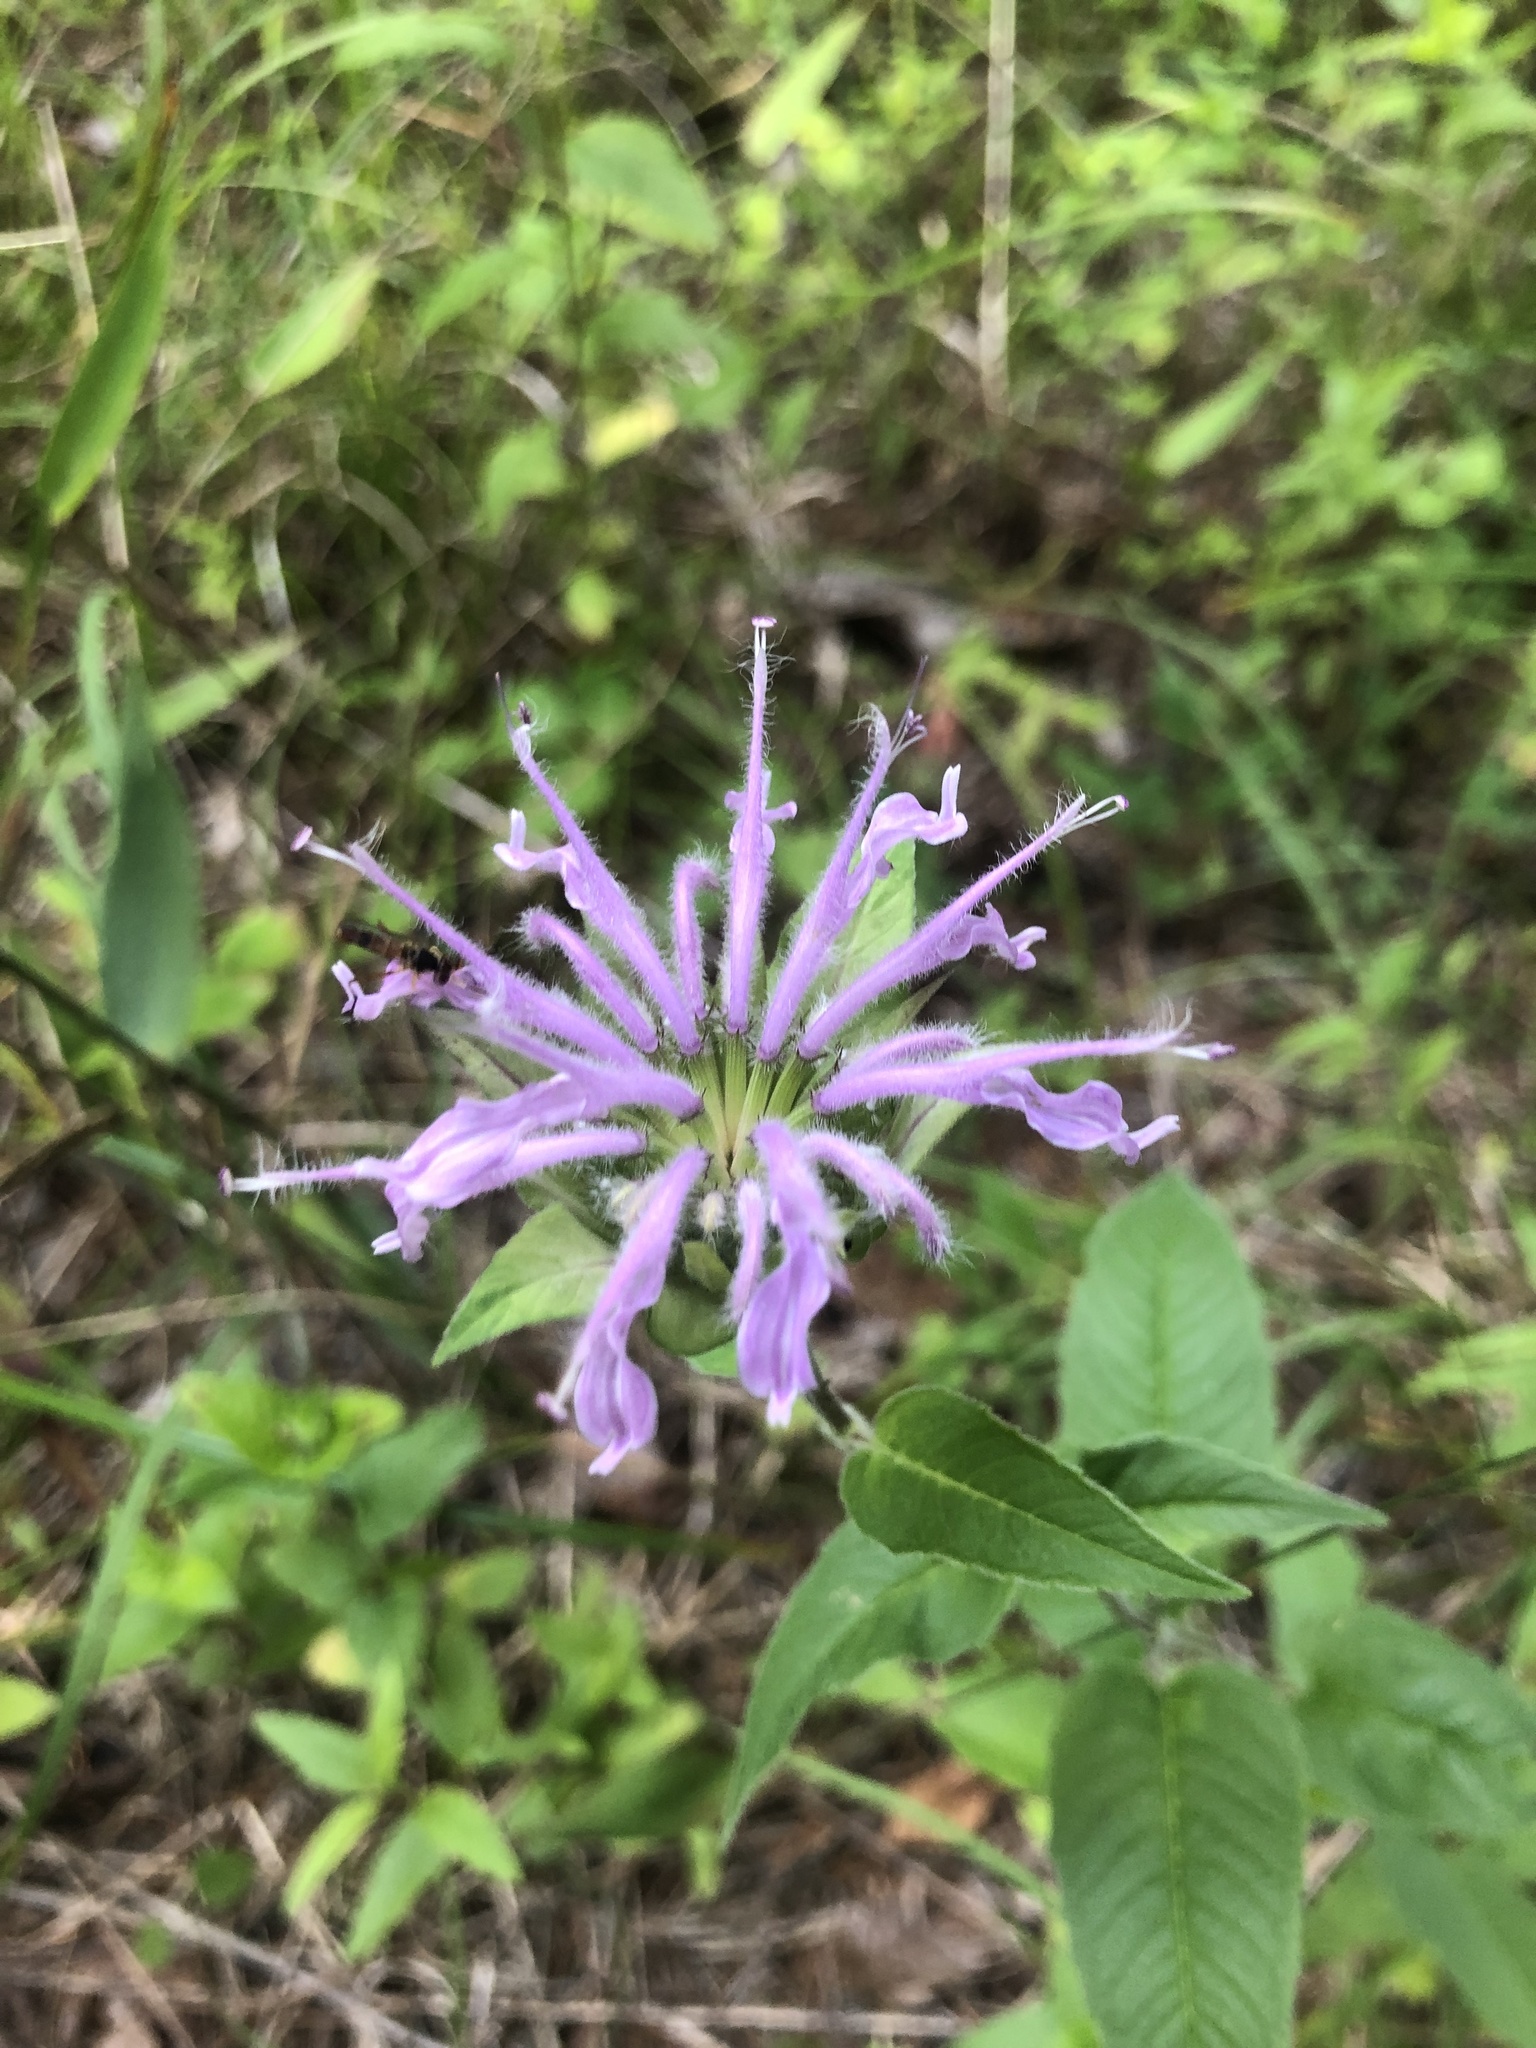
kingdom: Plantae
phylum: Tracheophyta
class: Magnoliopsida
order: Lamiales
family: Lamiaceae
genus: Monarda
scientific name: Monarda fistulosa
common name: Purple beebalm
